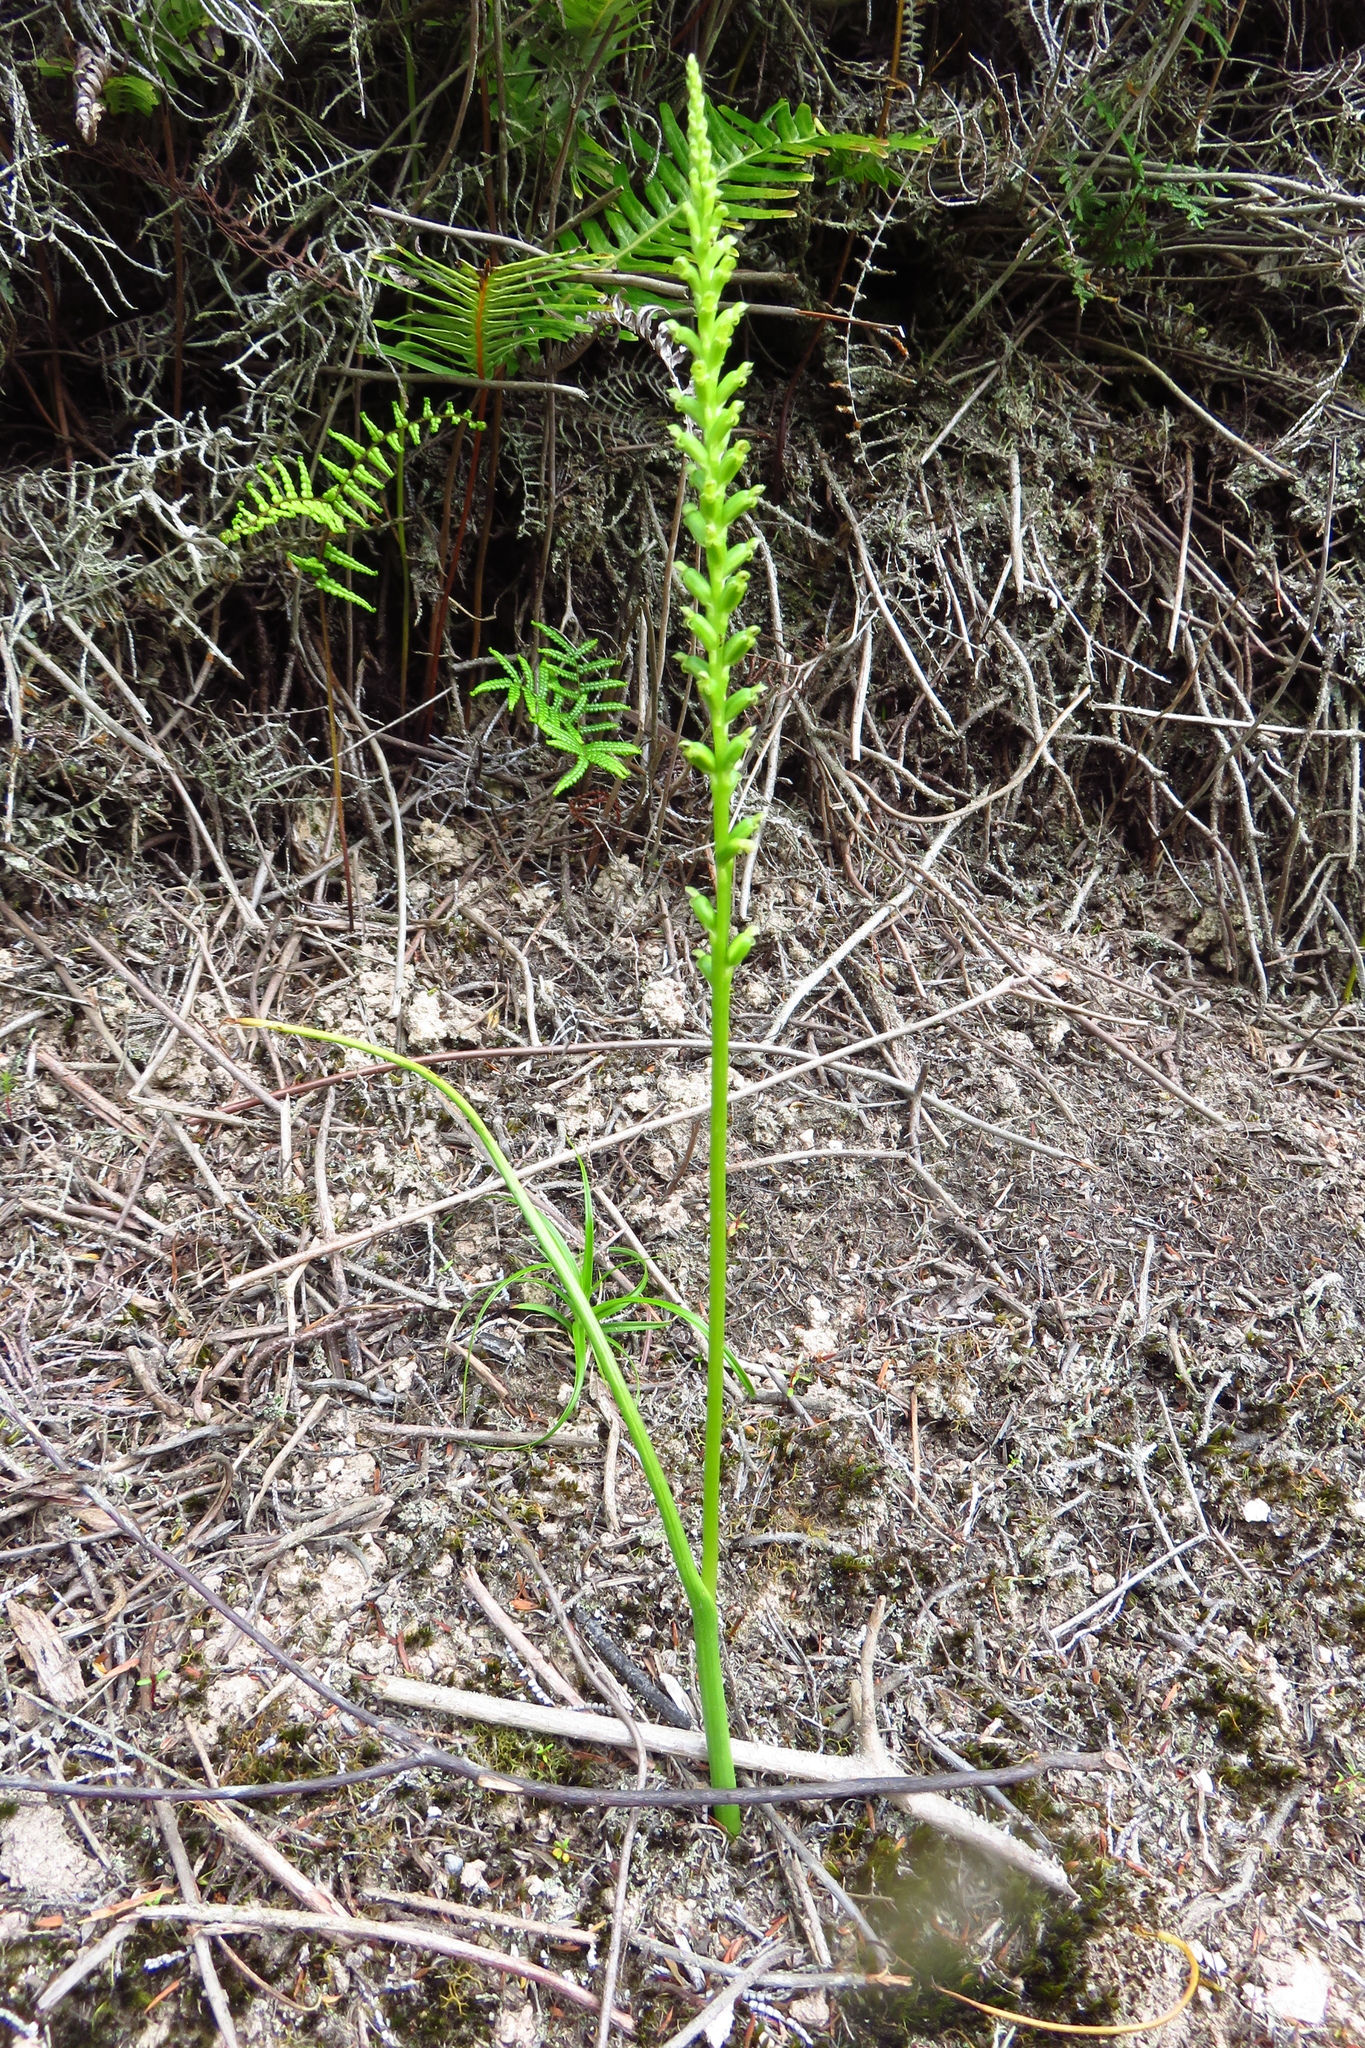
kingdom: Plantae
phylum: Tracheophyta
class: Liliopsida
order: Asparagales
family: Orchidaceae
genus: Microtis
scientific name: Microtis unifolia
